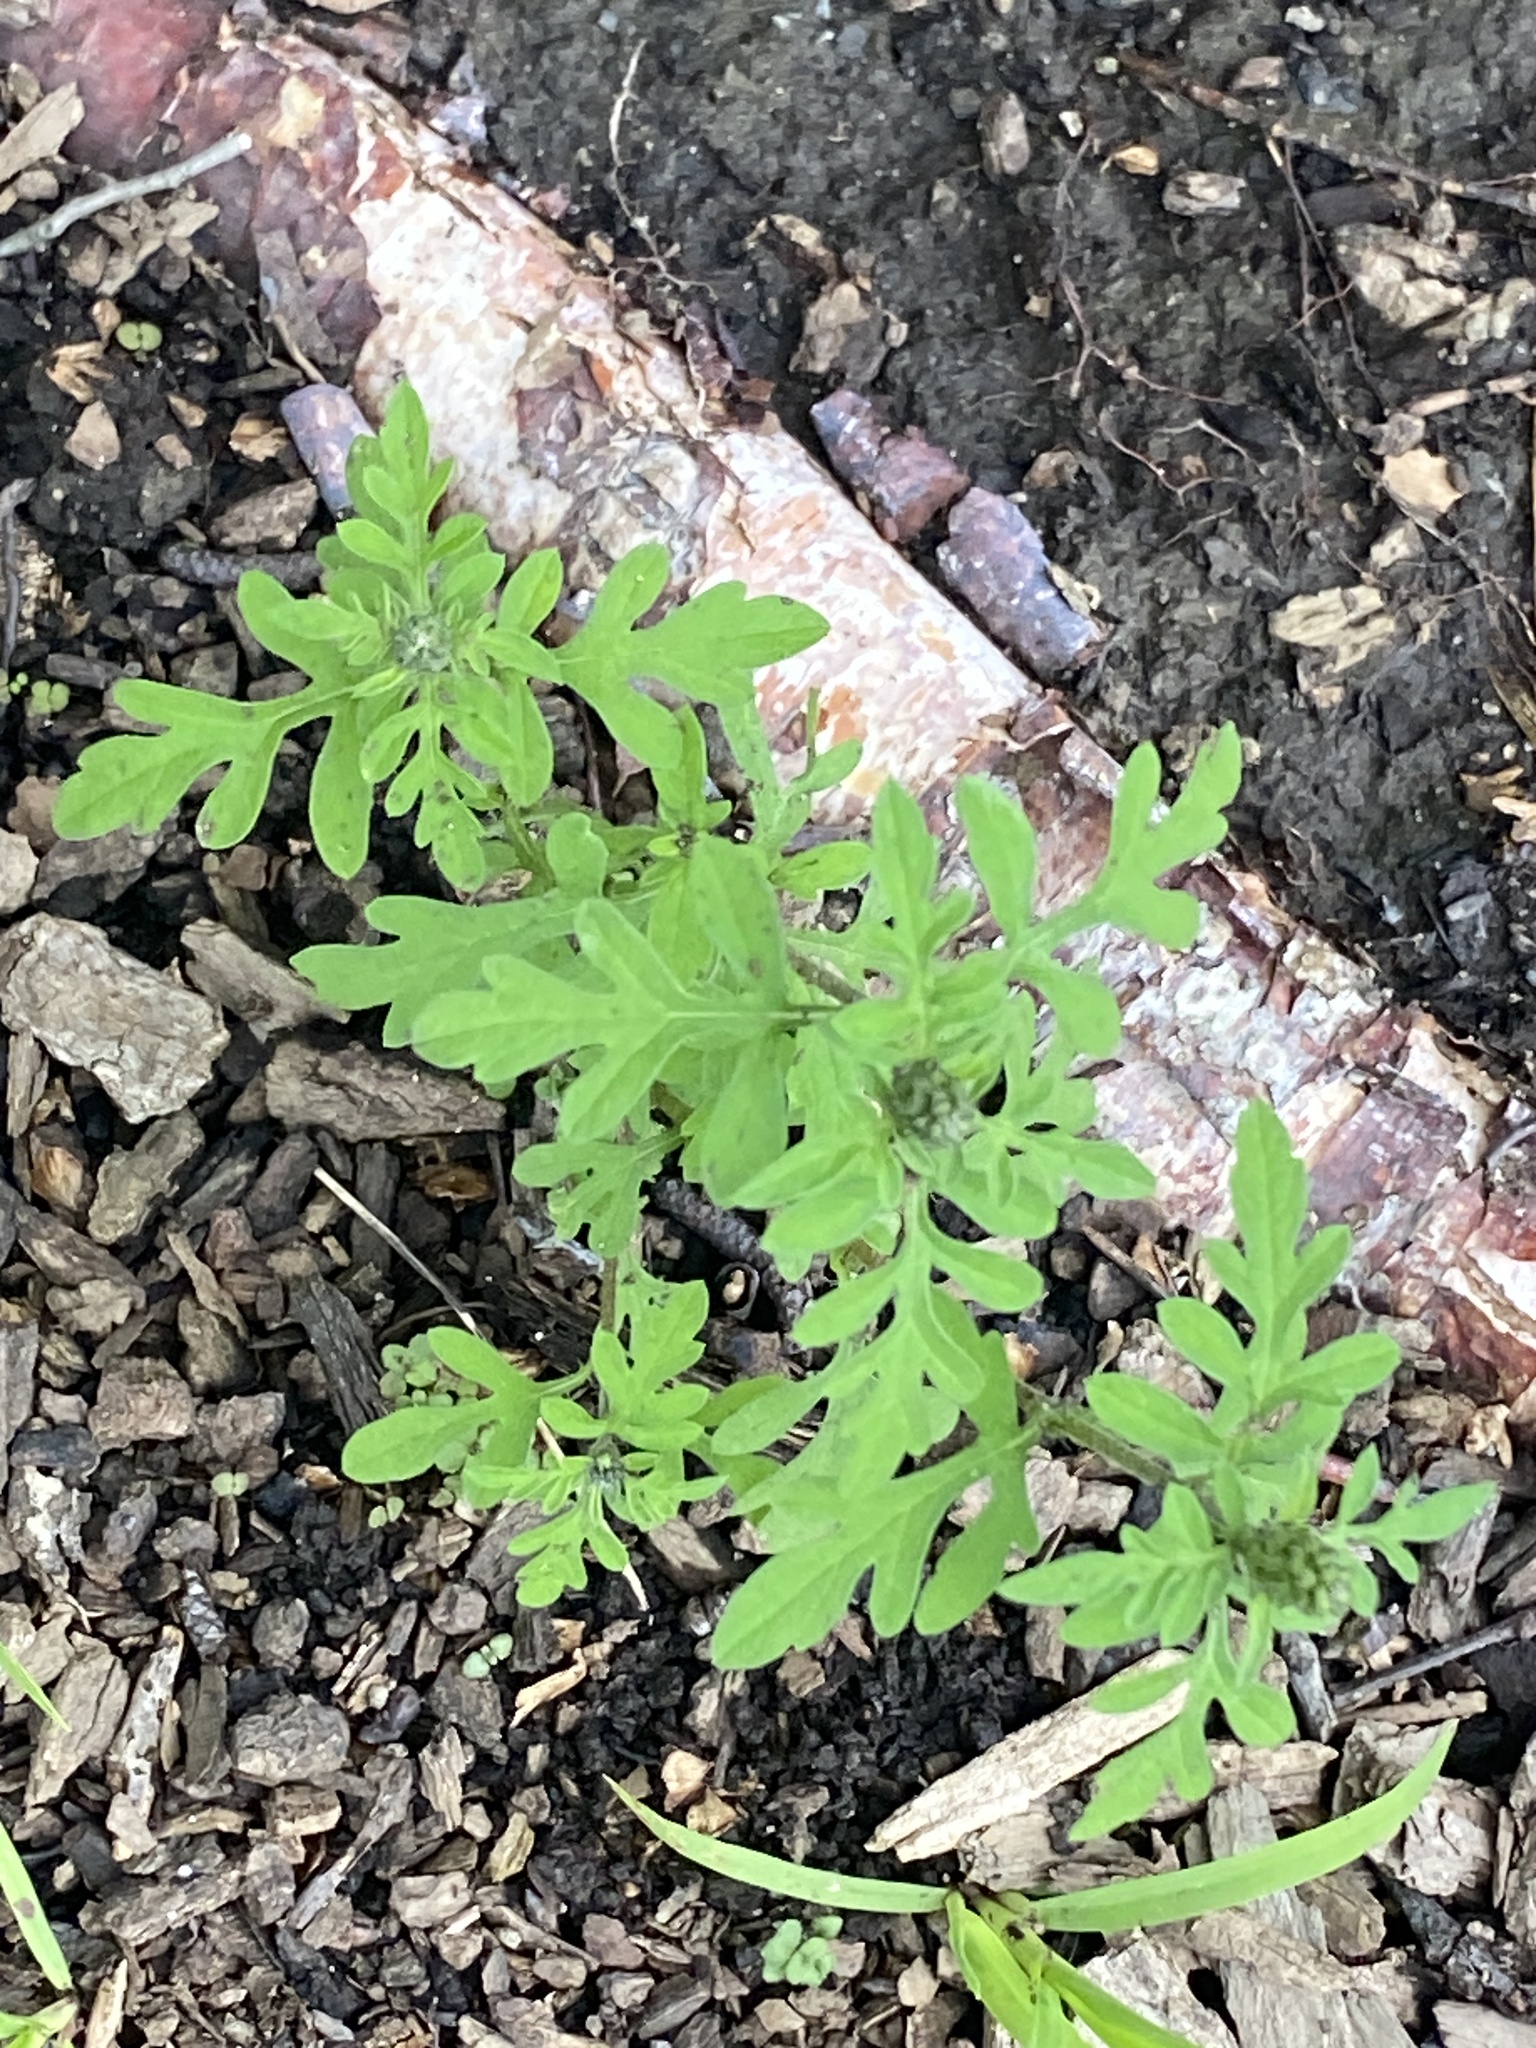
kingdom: Plantae
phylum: Tracheophyta
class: Magnoliopsida
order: Asterales
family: Asteraceae
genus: Ambrosia
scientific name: Ambrosia artemisiifolia
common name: Annual ragweed
